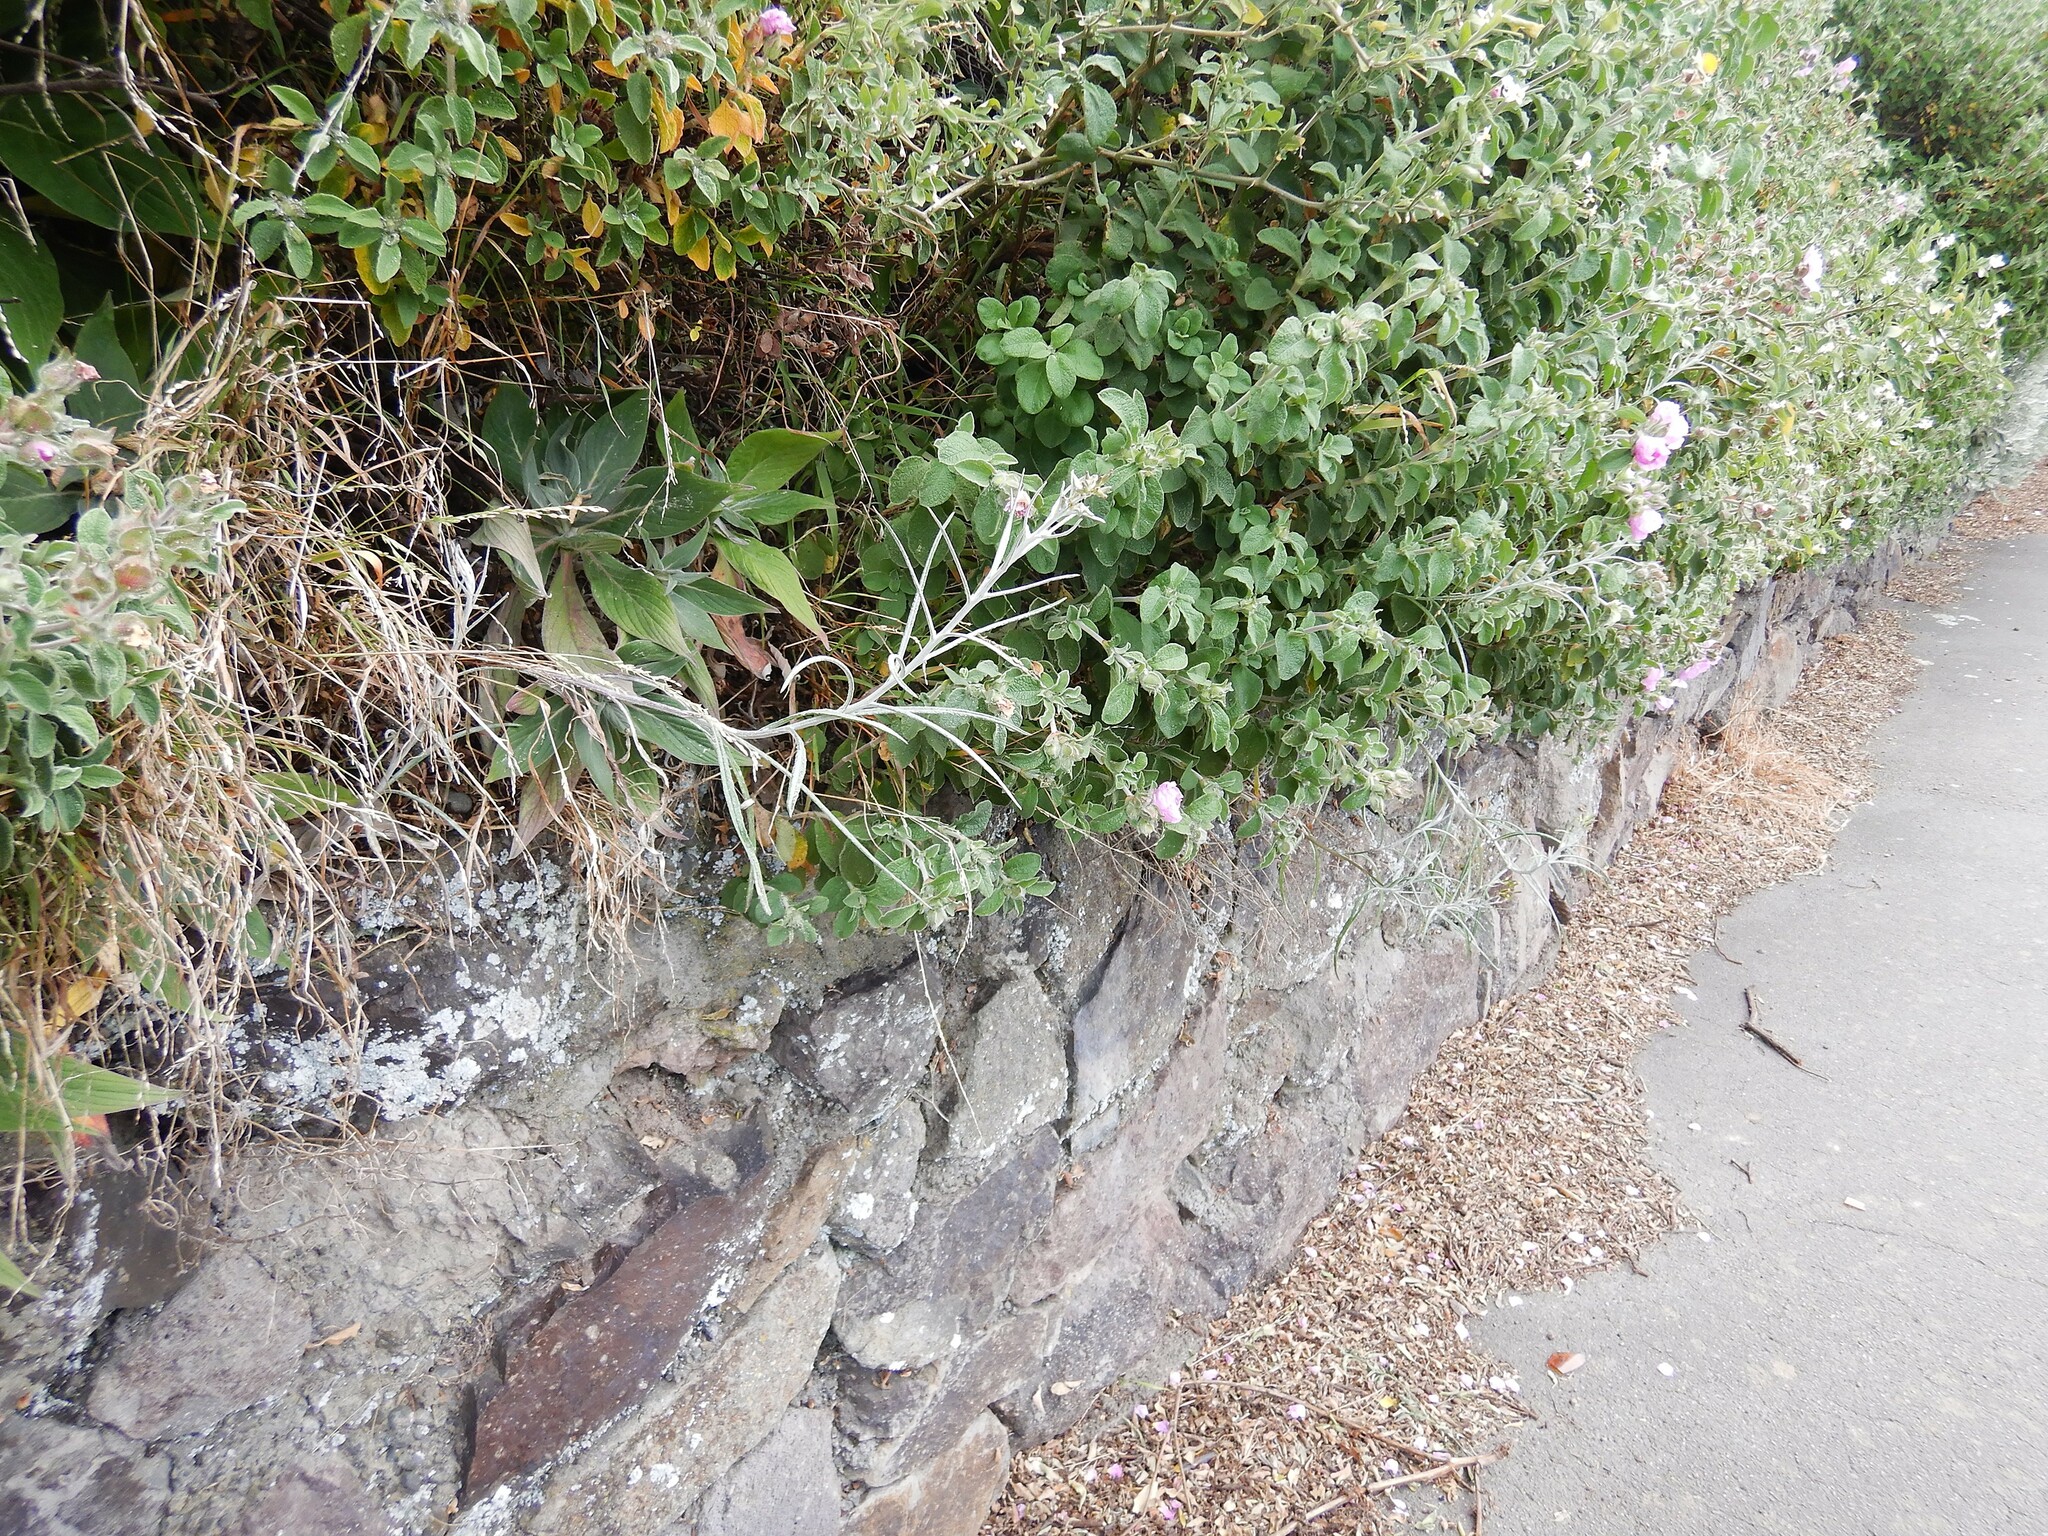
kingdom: Plantae
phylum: Tracheophyta
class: Magnoliopsida
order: Asterales
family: Asteraceae
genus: Senecio
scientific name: Senecio quadridentatus
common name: Cotton fireweed
